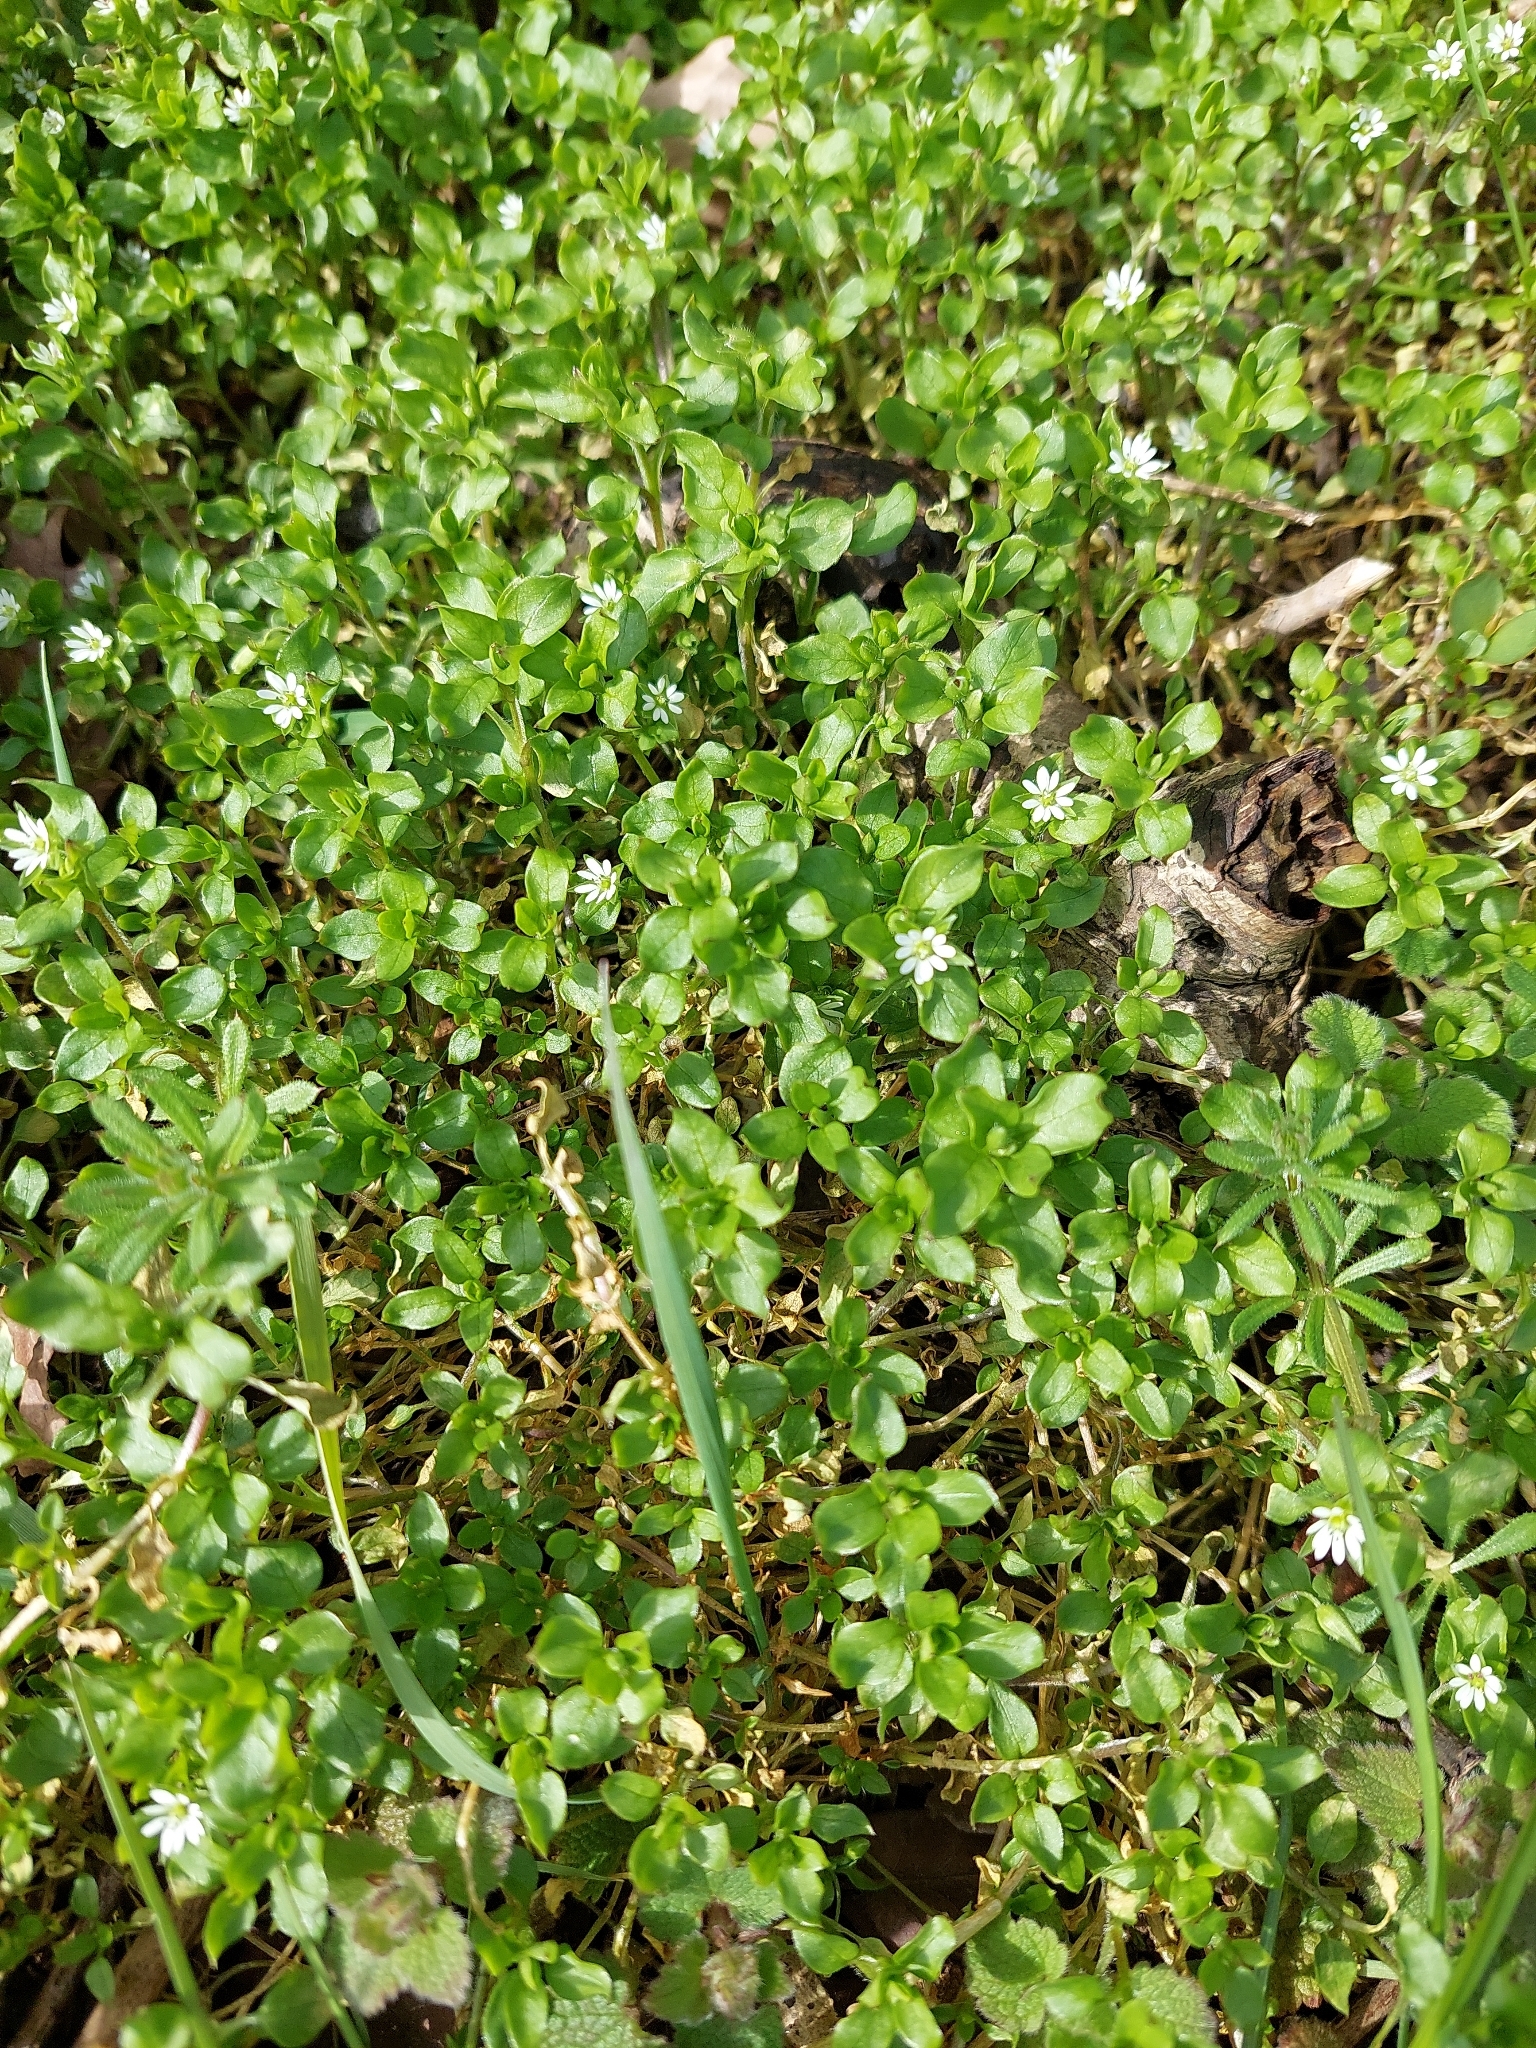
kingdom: Plantae
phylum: Tracheophyta
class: Magnoliopsida
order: Caryophyllales
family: Caryophyllaceae
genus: Stellaria
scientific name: Stellaria media
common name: Common chickweed
